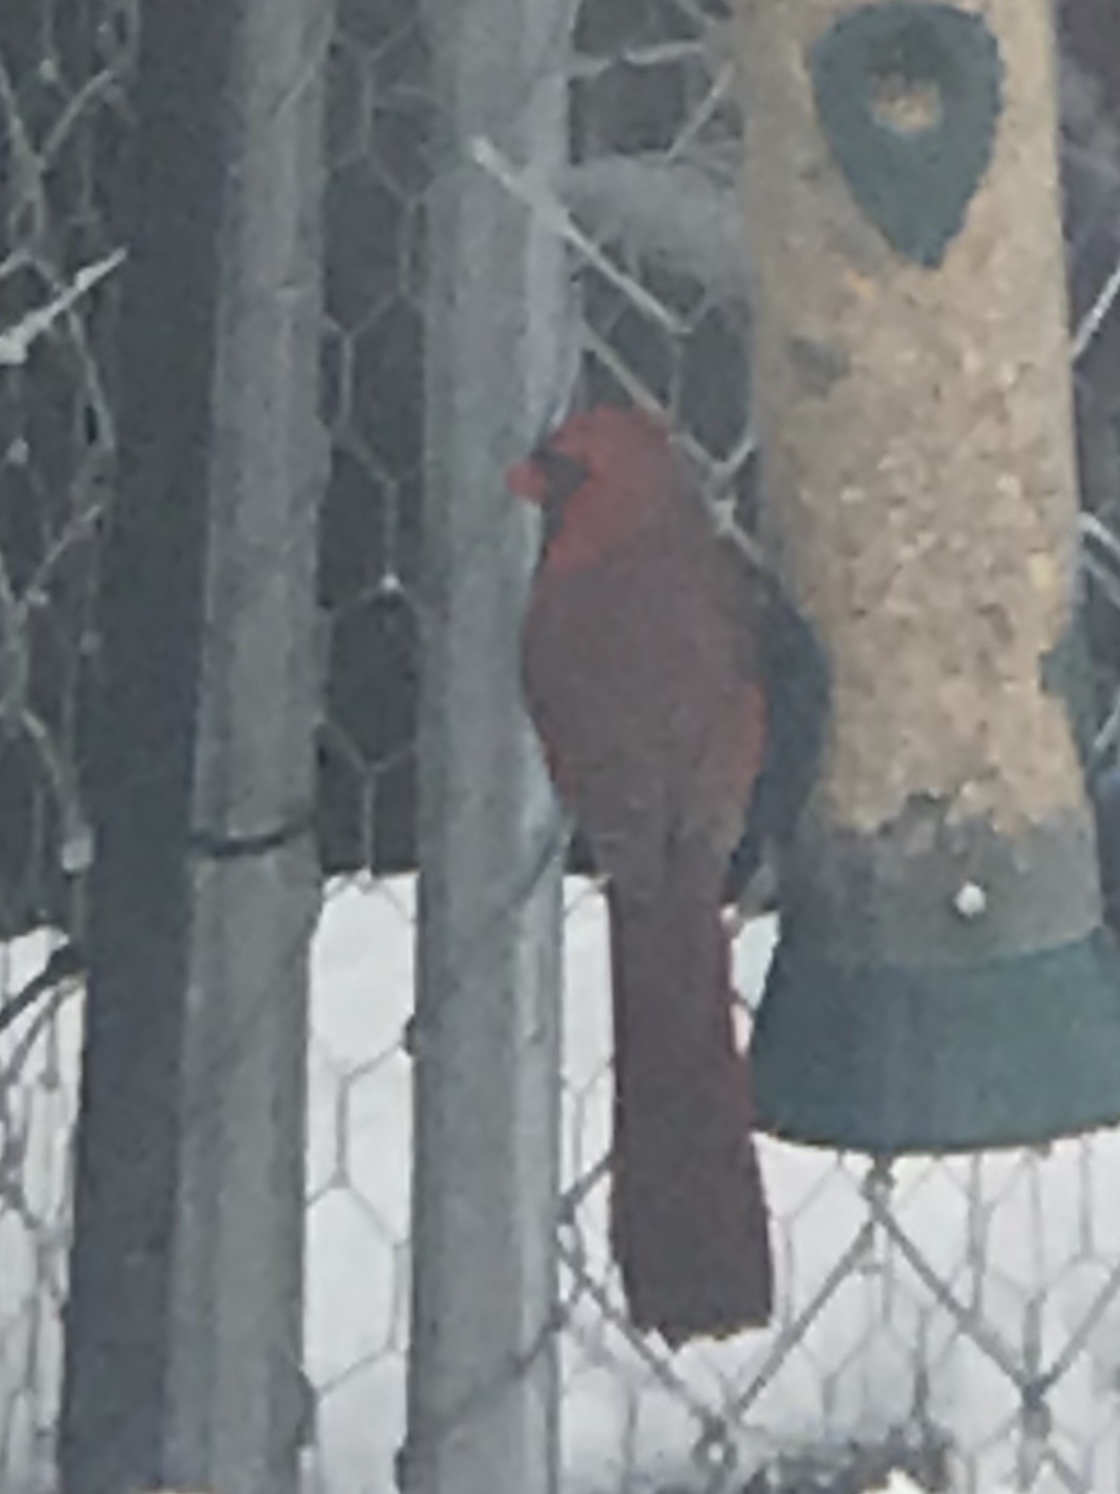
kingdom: Animalia
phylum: Chordata
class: Aves
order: Passeriformes
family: Cardinalidae
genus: Cardinalis
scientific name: Cardinalis cardinalis
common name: Northern cardinal
